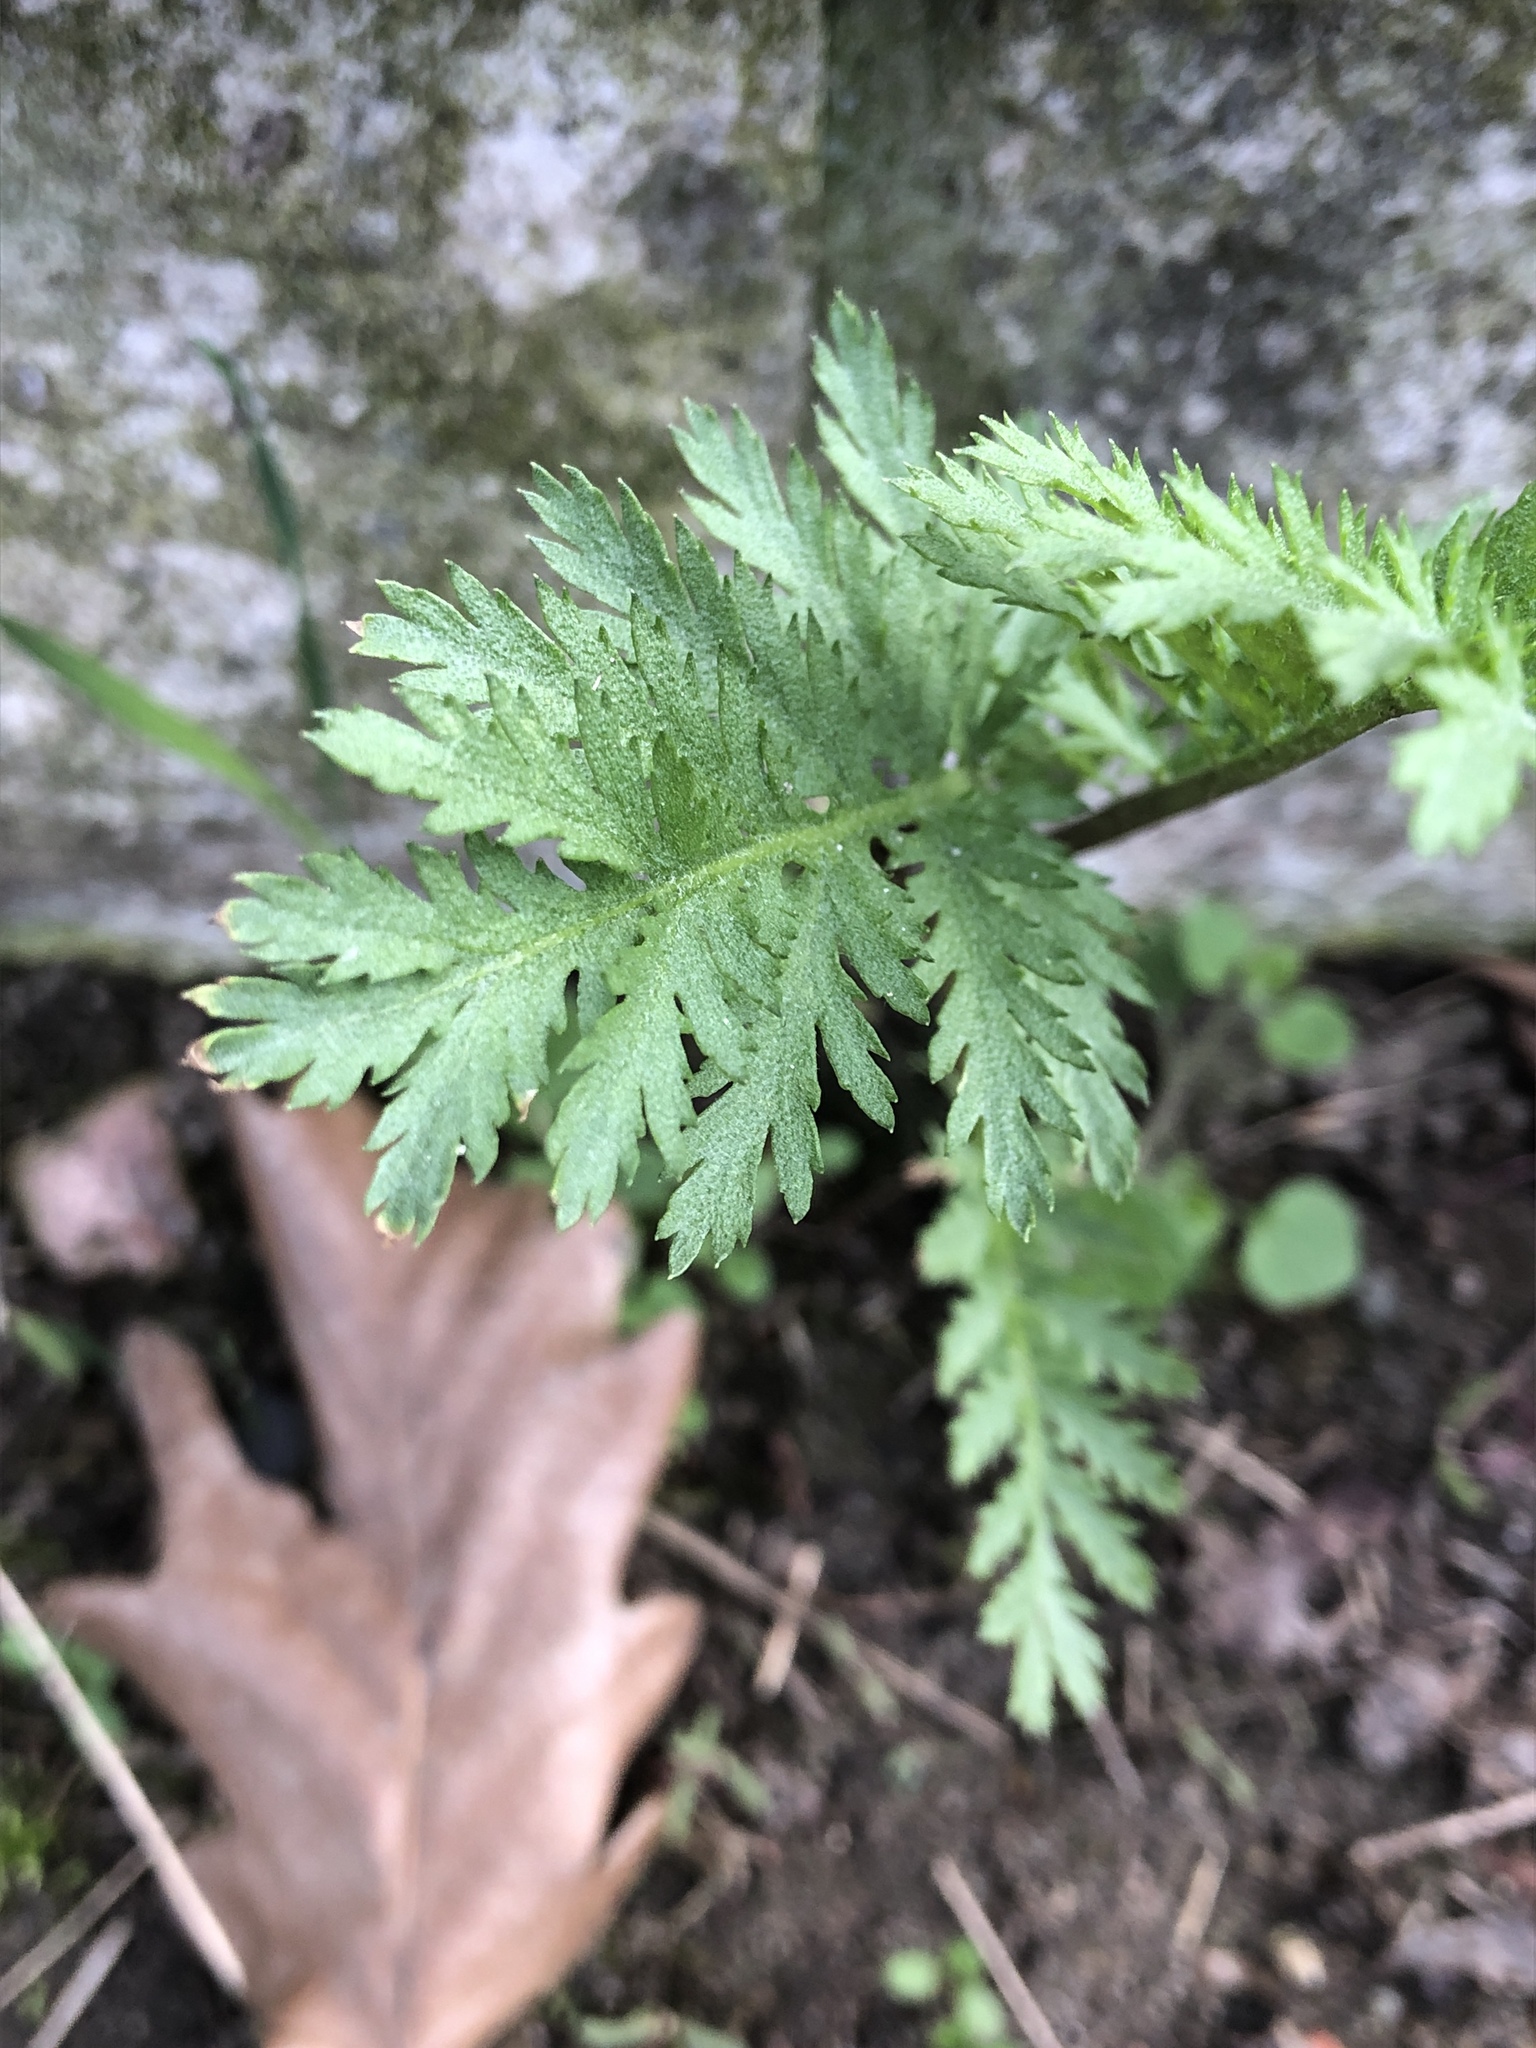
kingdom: Plantae
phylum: Tracheophyta
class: Magnoliopsida
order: Asterales
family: Asteraceae
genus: Tanacetum
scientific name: Tanacetum vulgare
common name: Common tansy
